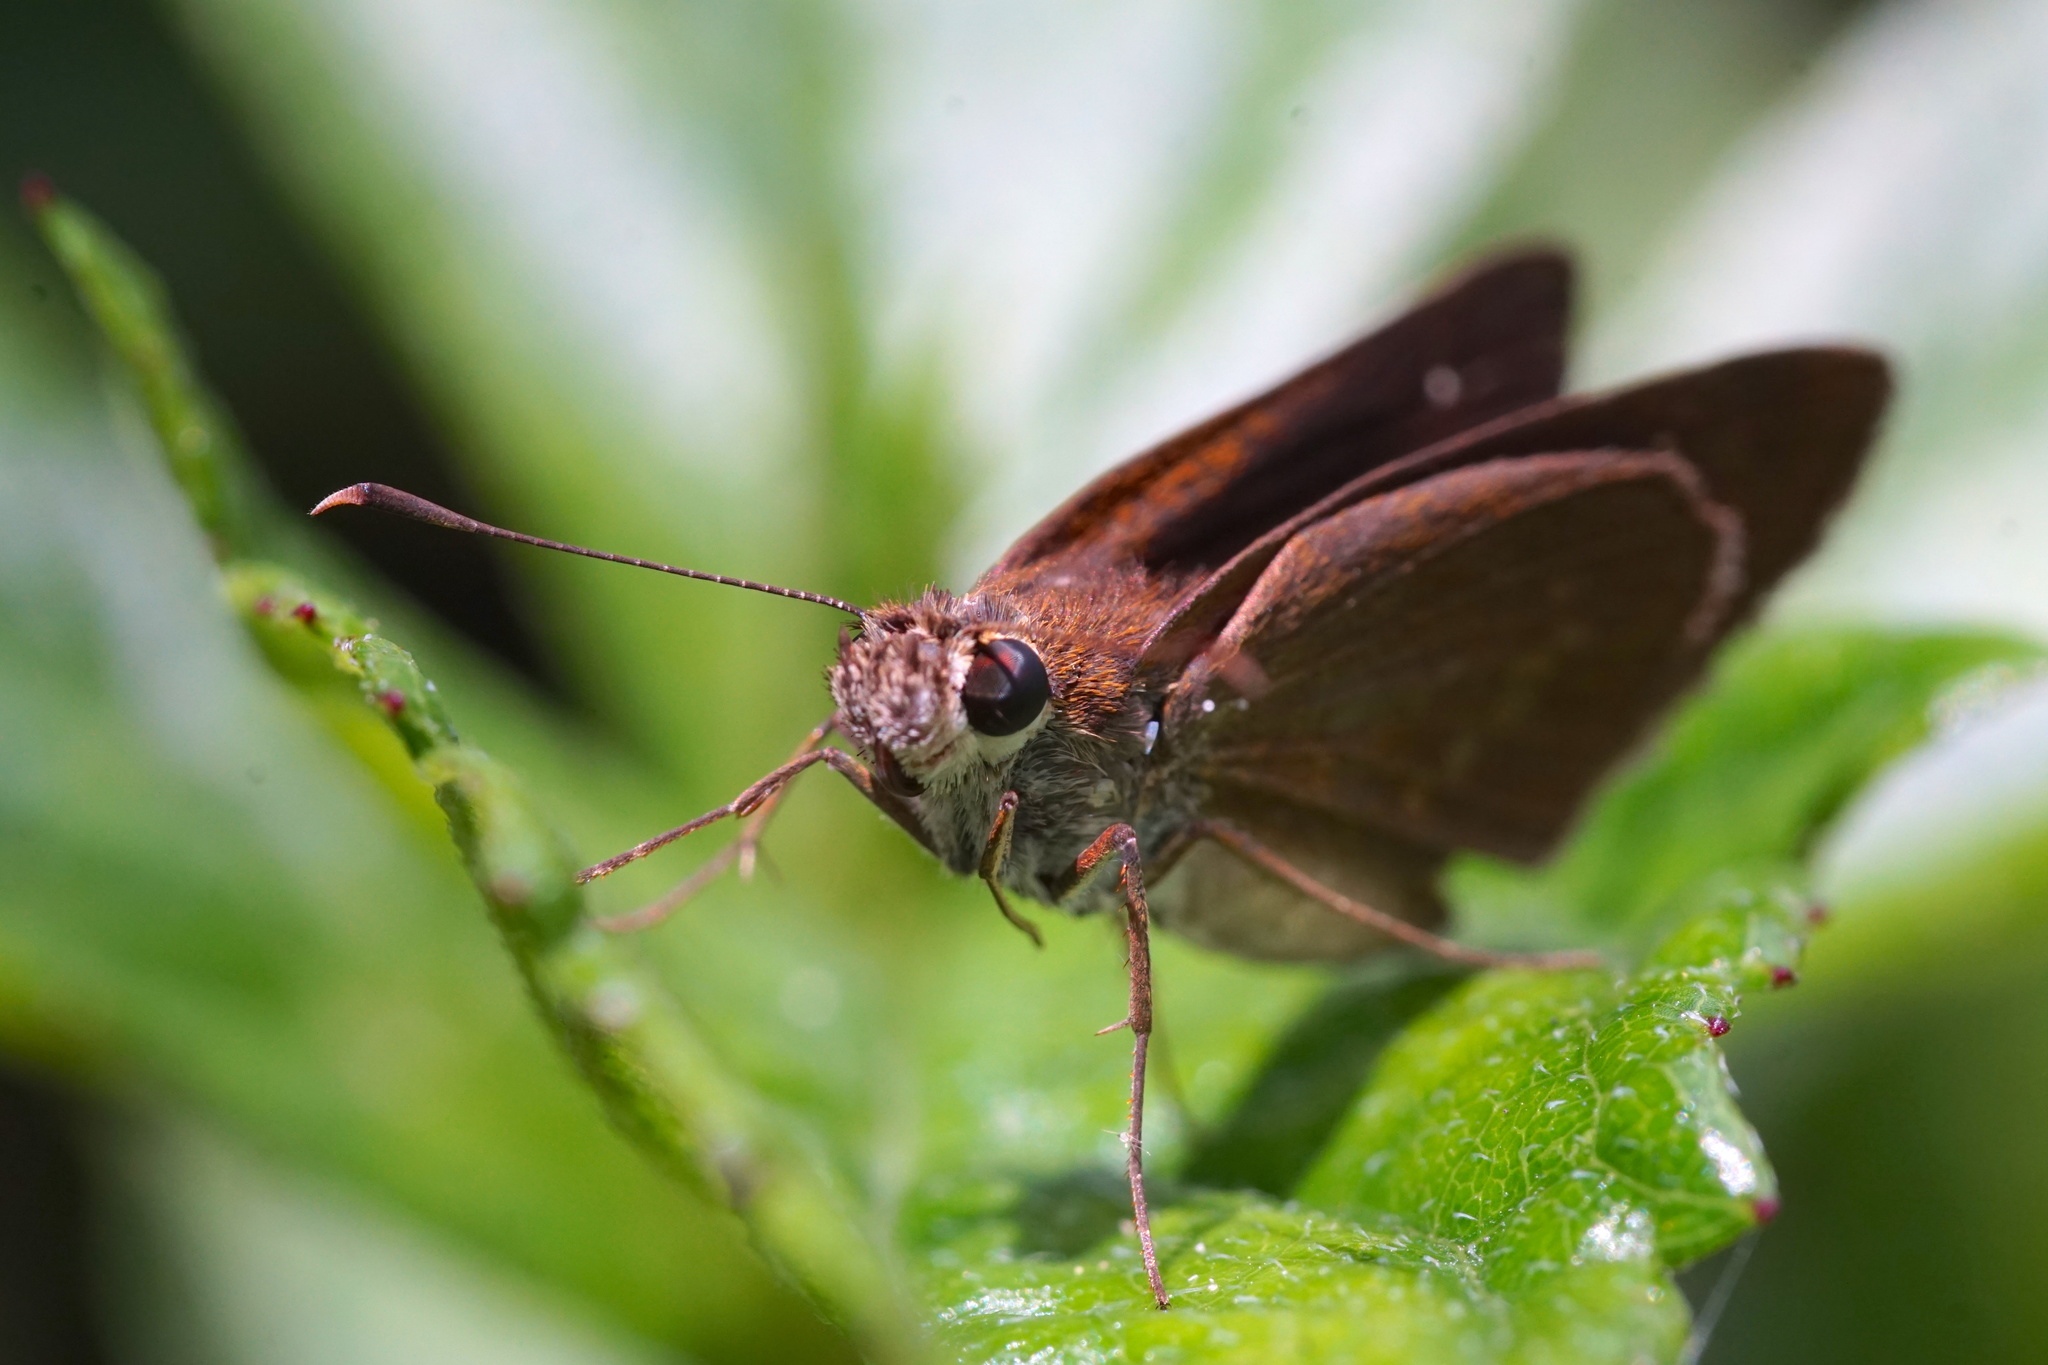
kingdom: Animalia
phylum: Arthropoda
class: Insecta
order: Lepidoptera
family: Hesperiidae
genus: Asbolis
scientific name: Asbolis capucinus
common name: Monk skipper
